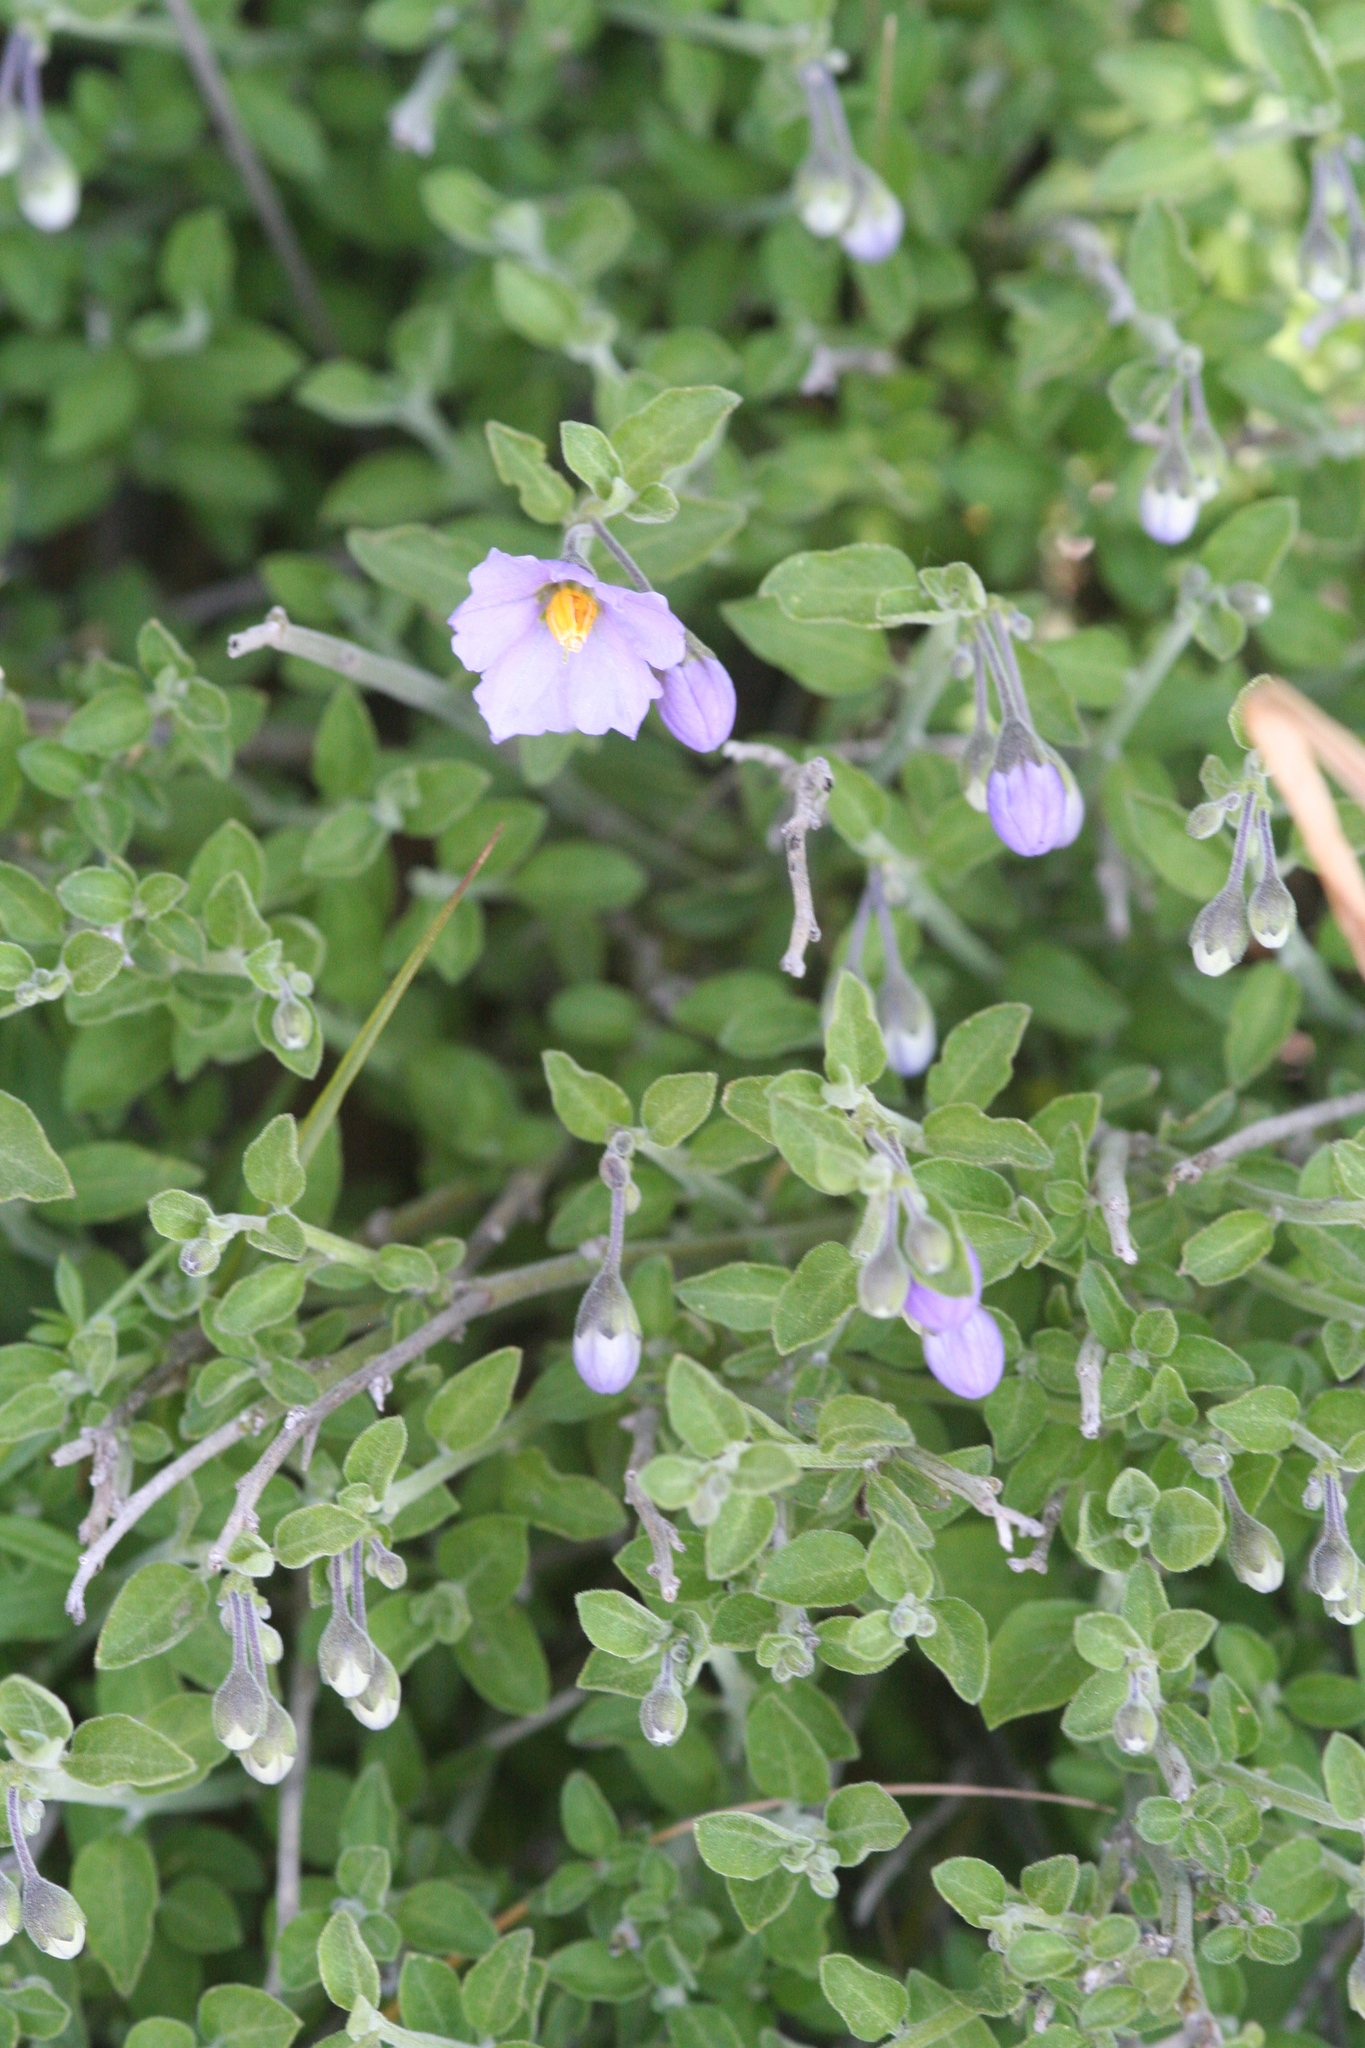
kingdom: Plantae
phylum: Tracheophyta
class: Magnoliopsida
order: Solanales
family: Solanaceae
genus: Solanum
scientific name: Solanum umbelliferum
